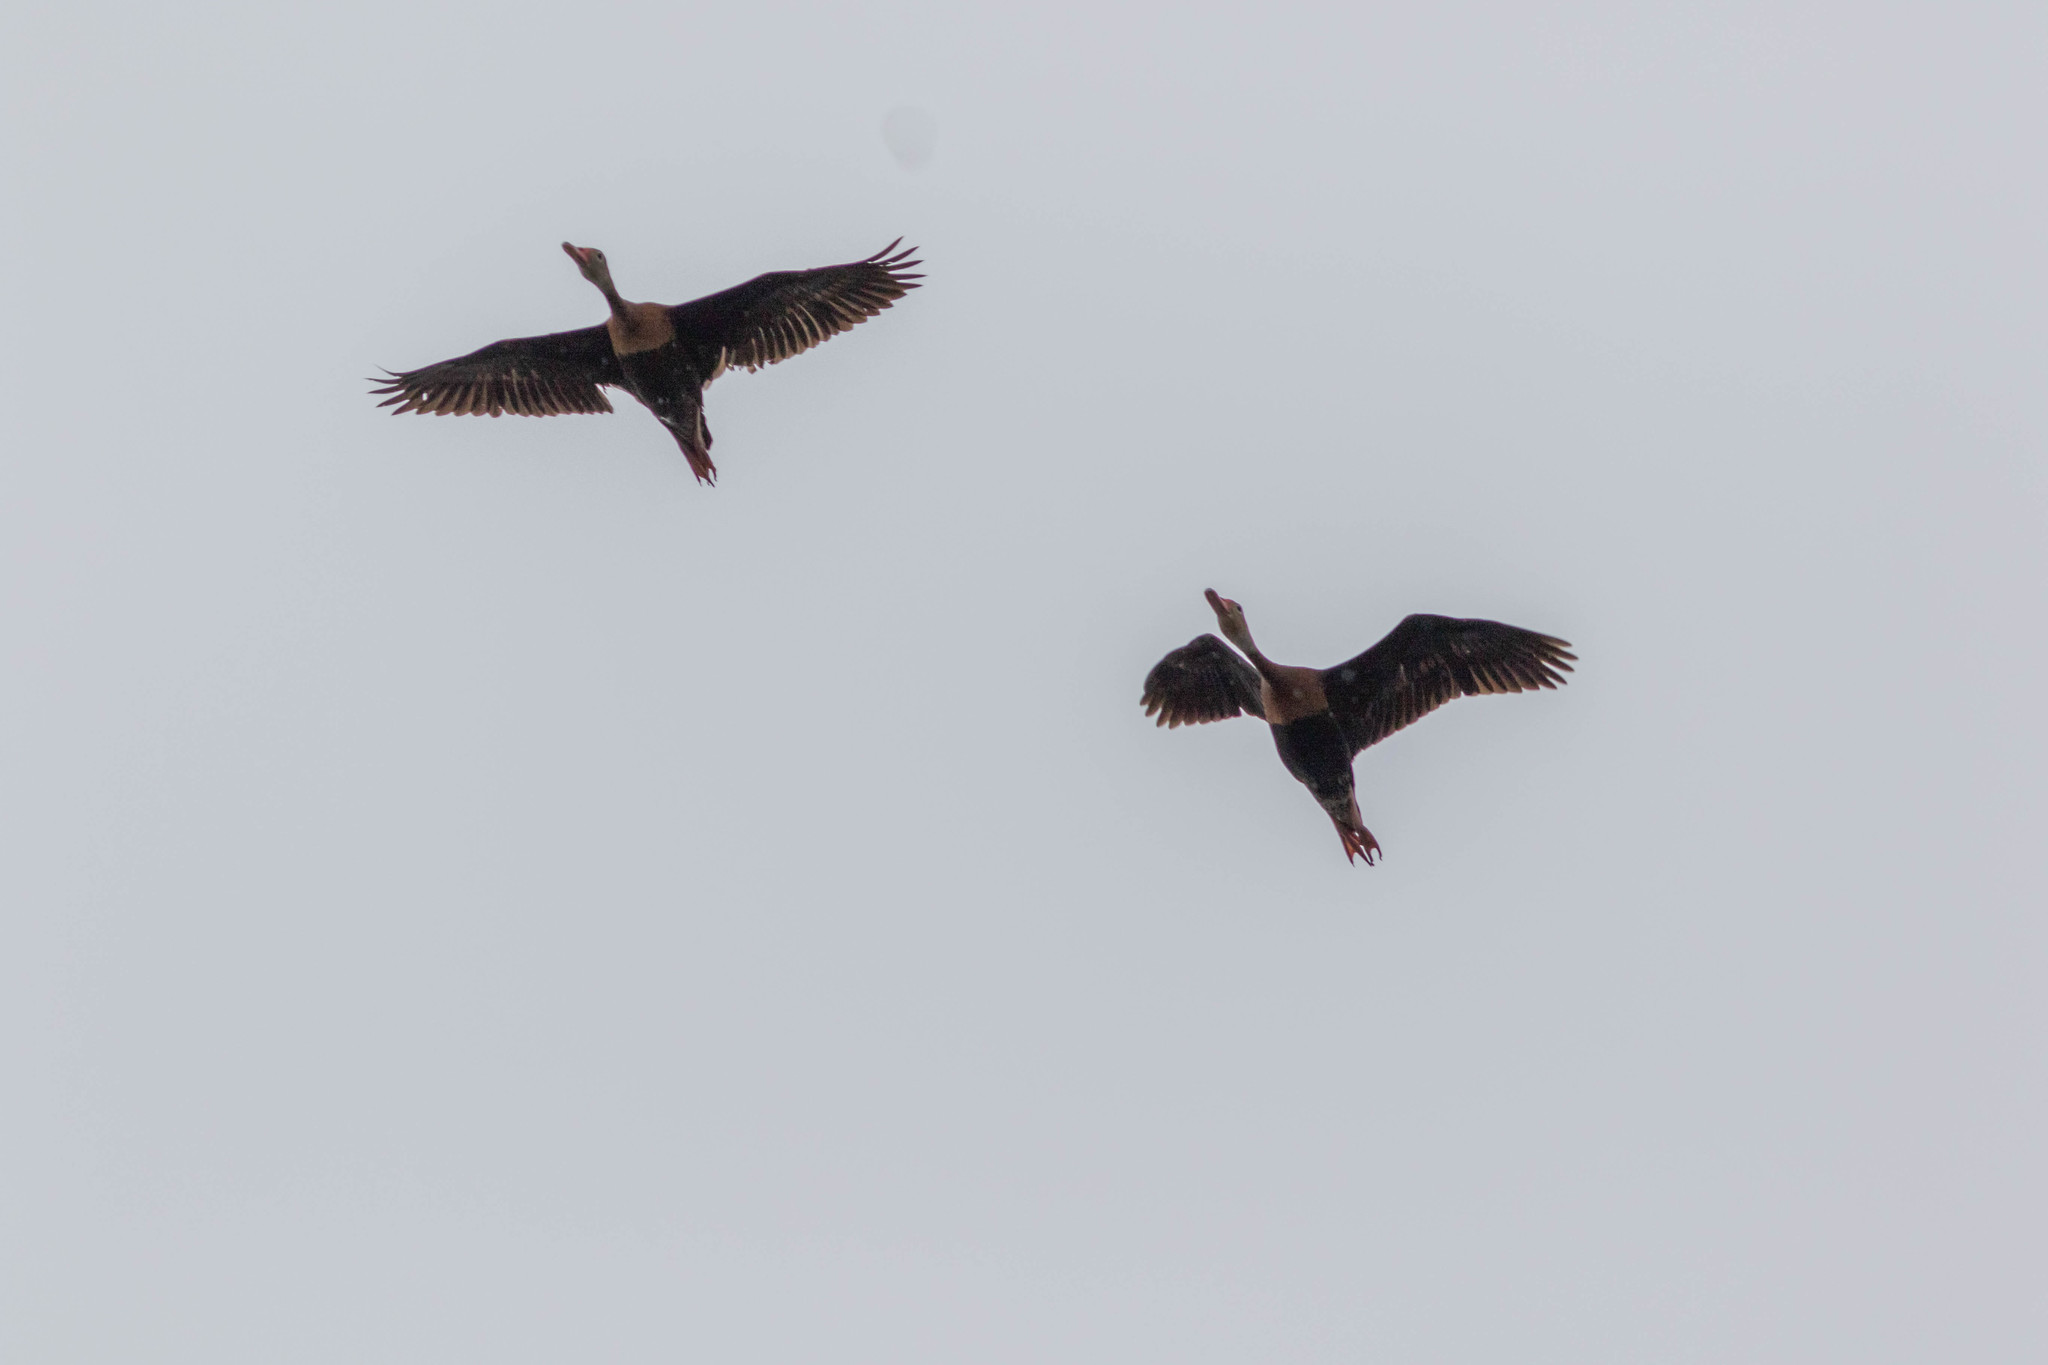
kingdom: Animalia
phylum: Chordata
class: Aves
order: Anseriformes
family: Anatidae
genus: Dendrocygna
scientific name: Dendrocygna autumnalis
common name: Black-bellied whistling duck
